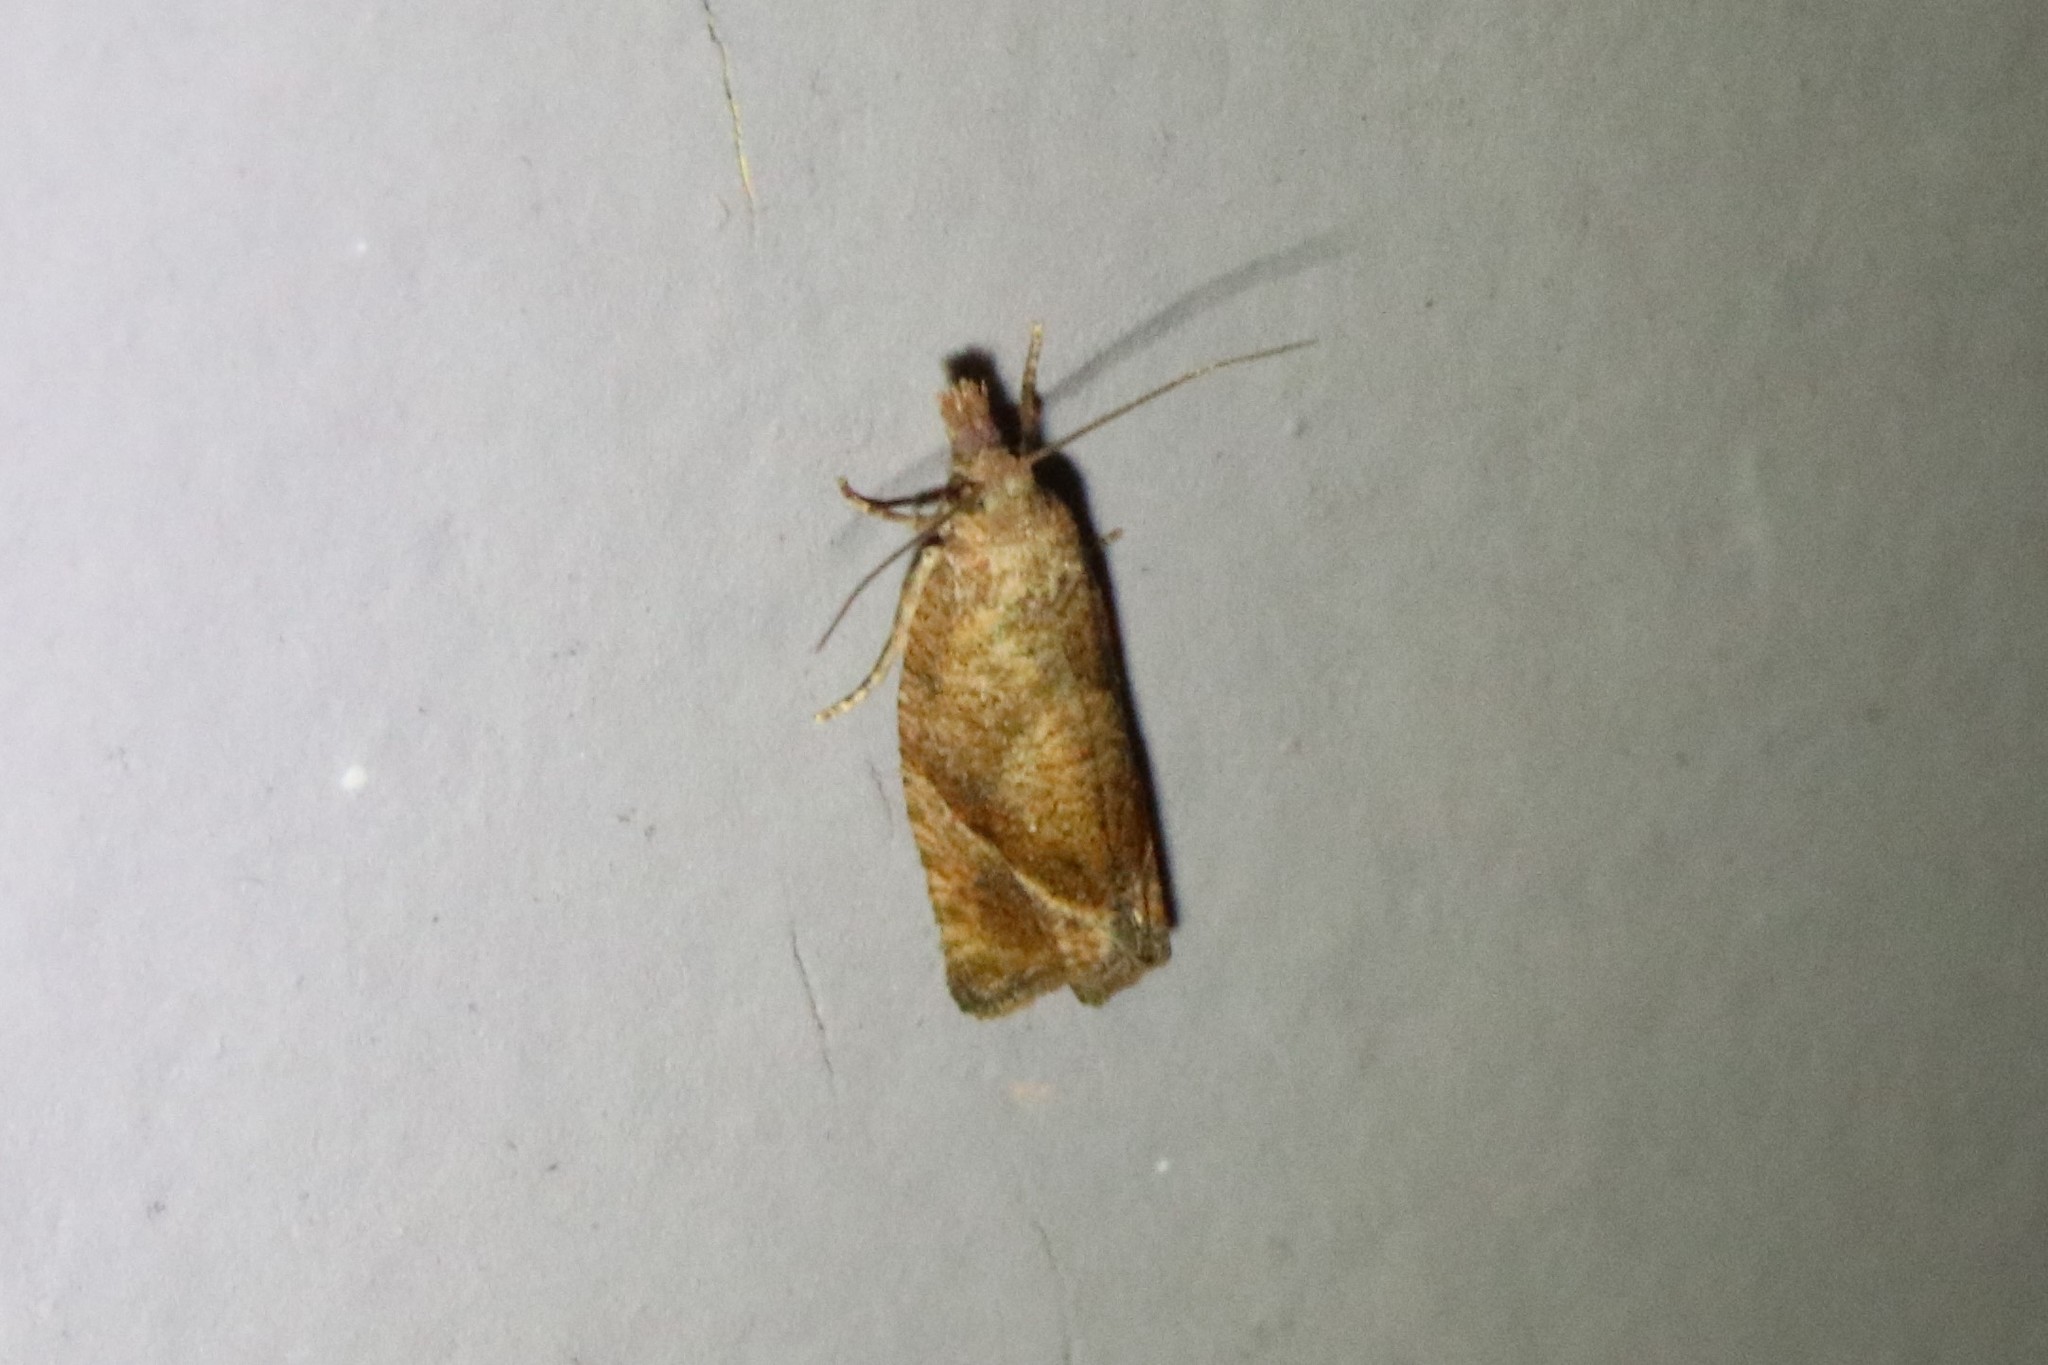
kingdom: Animalia
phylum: Arthropoda
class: Insecta
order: Lepidoptera
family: Tortricidae
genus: Pelochrista
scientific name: Pelochrista derelicta
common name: Derelict pelochrista moth
